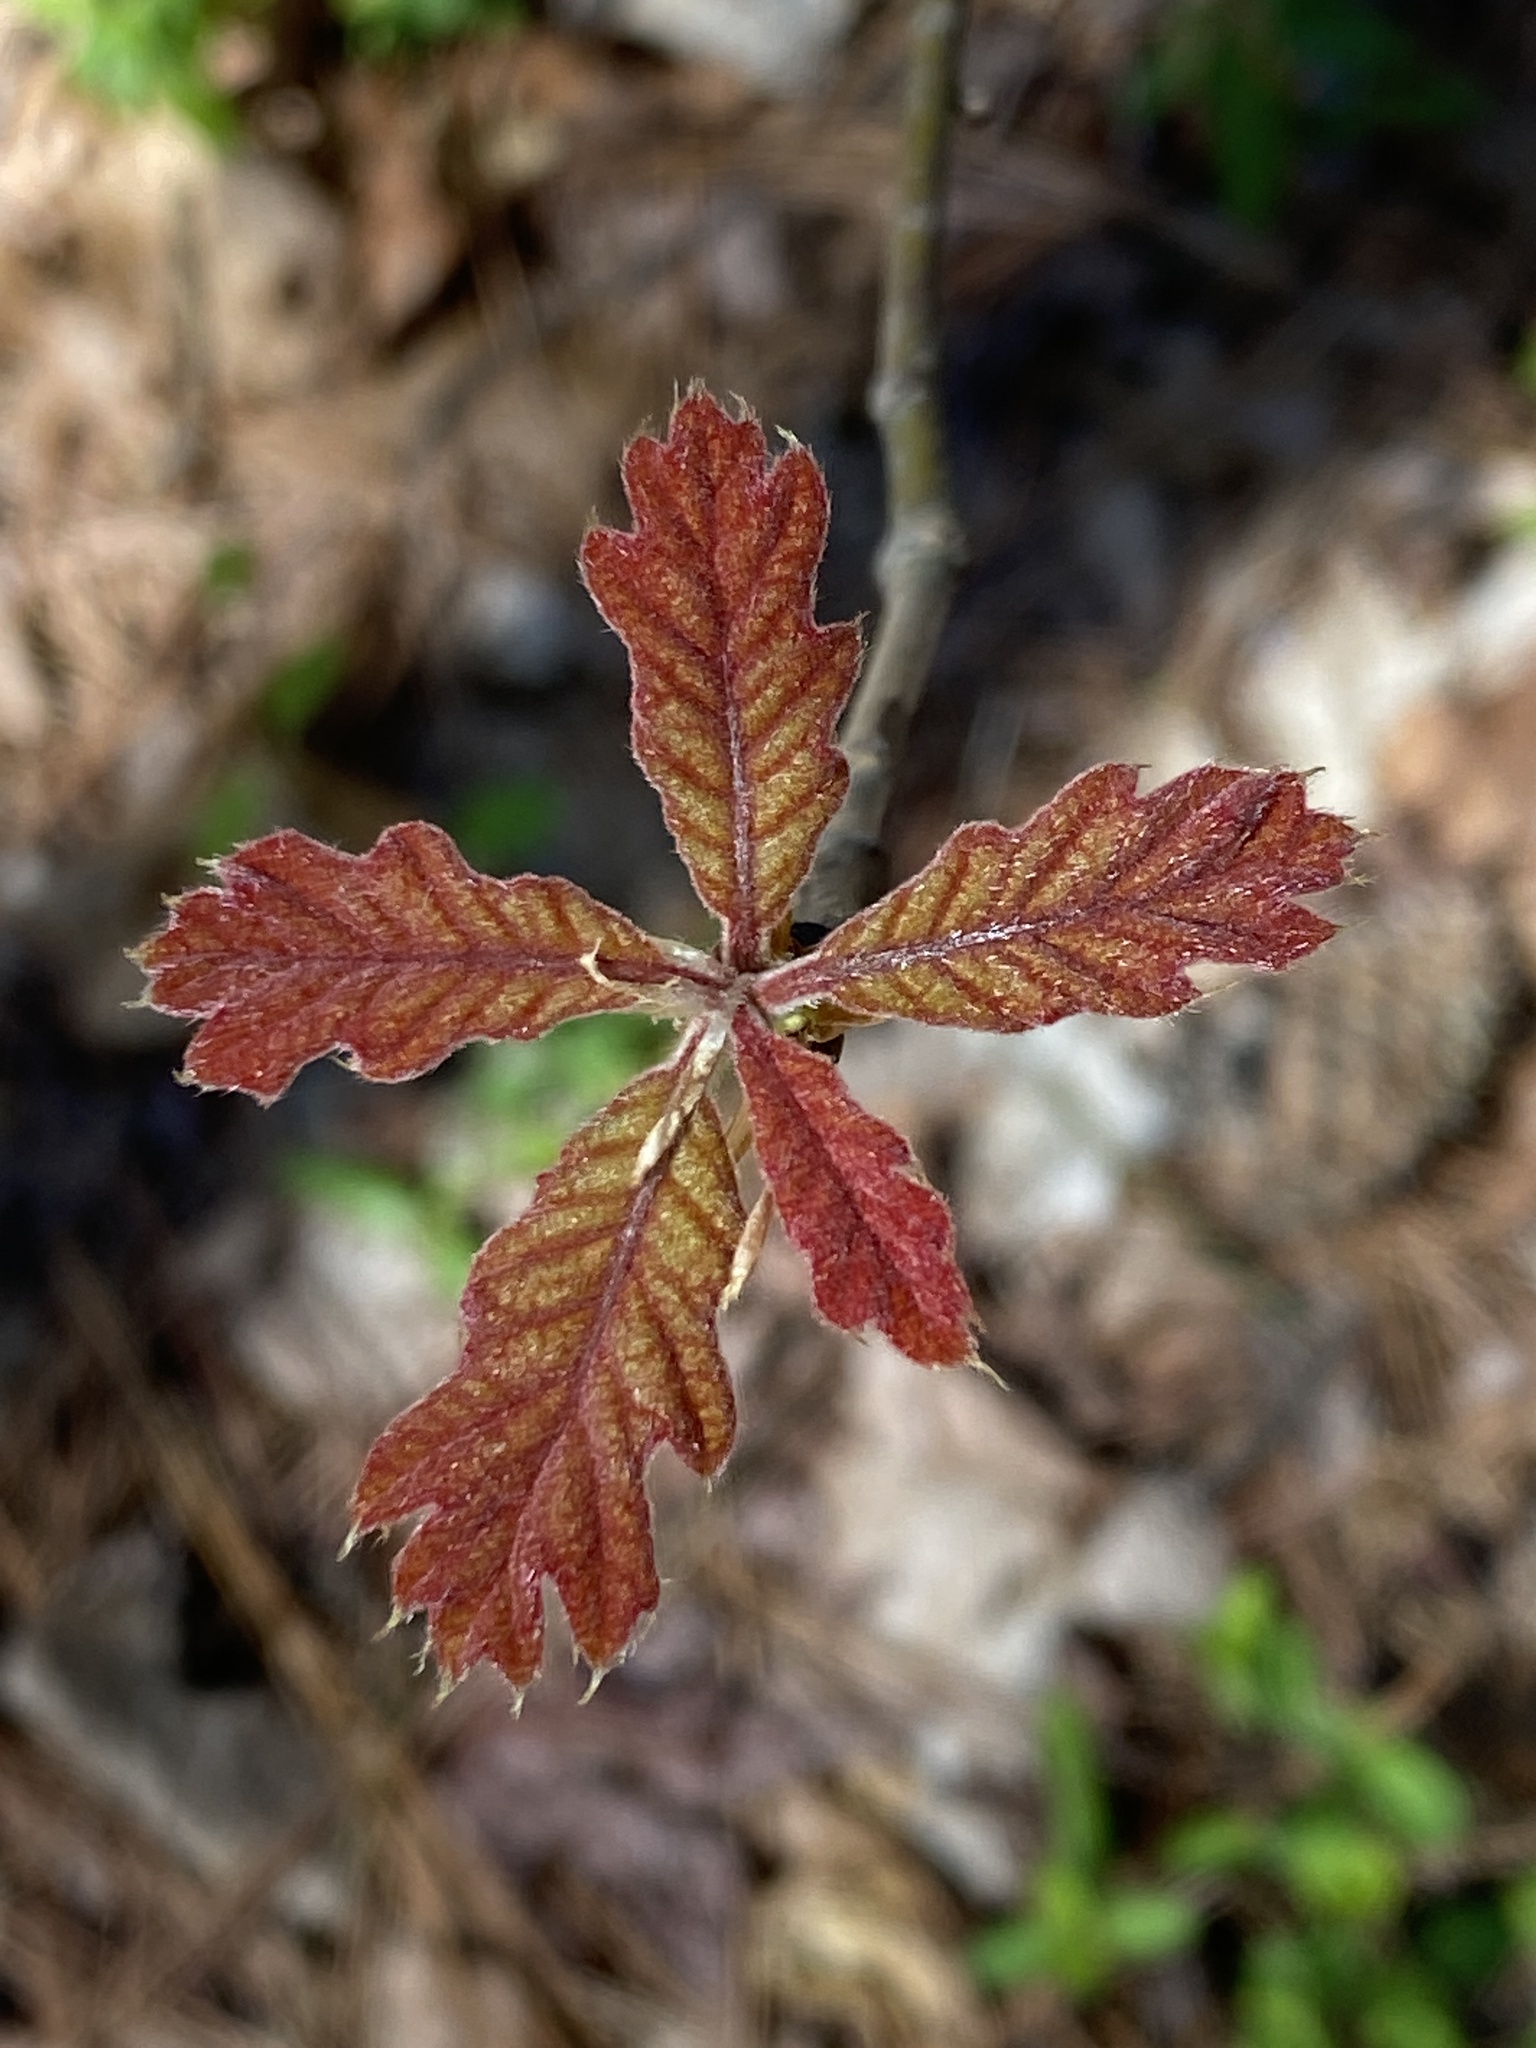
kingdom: Plantae
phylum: Tracheophyta
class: Magnoliopsida
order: Fagales
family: Fagaceae
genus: Quercus
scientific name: Quercus velutina
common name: Black oak
